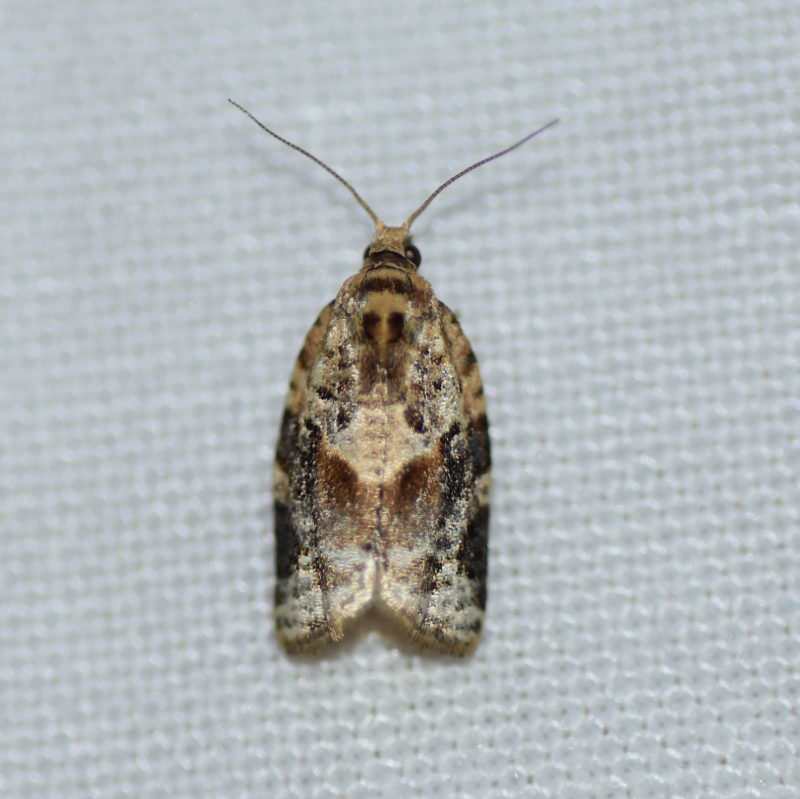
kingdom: Animalia
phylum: Arthropoda
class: Insecta
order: Lepidoptera
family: Tortricidae
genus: Argyrotaenia
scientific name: Argyrotaenia velutinana
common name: Red-banded leafroller moth
